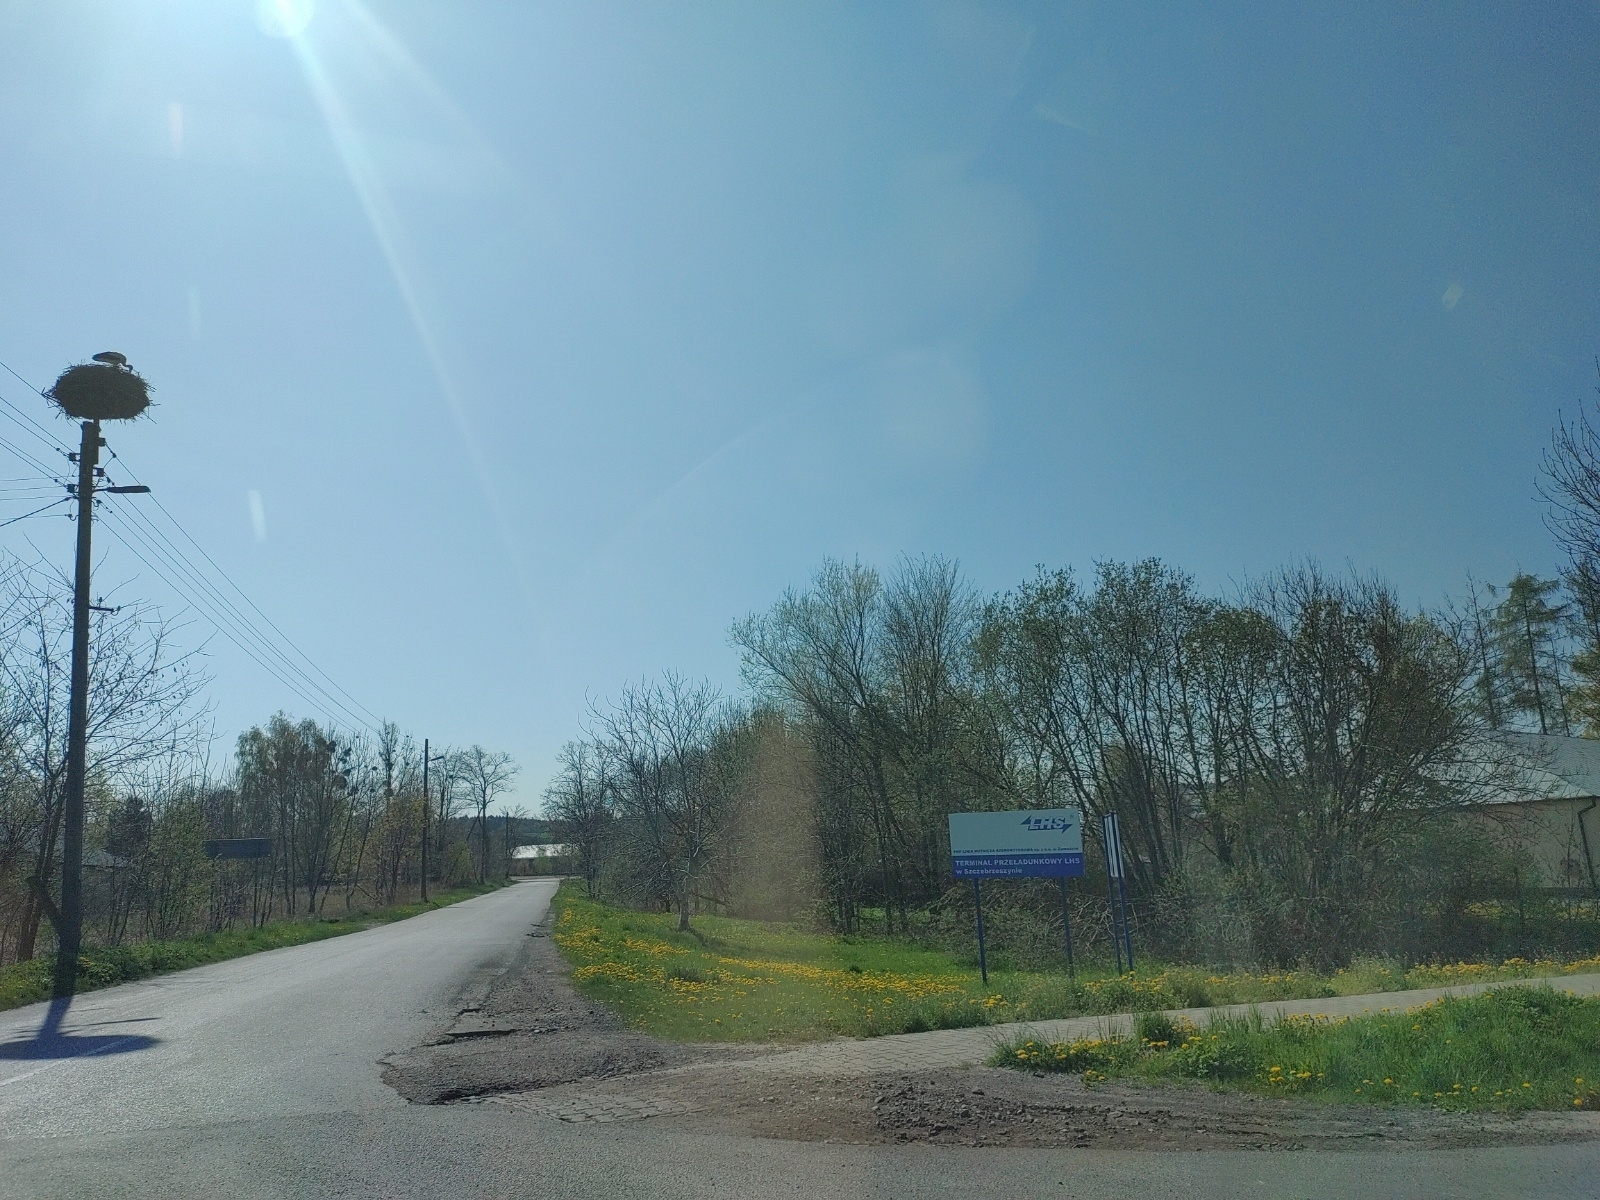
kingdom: Animalia
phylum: Chordata
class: Aves
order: Ciconiiformes
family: Ciconiidae
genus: Ciconia
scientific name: Ciconia ciconia
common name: White stork
